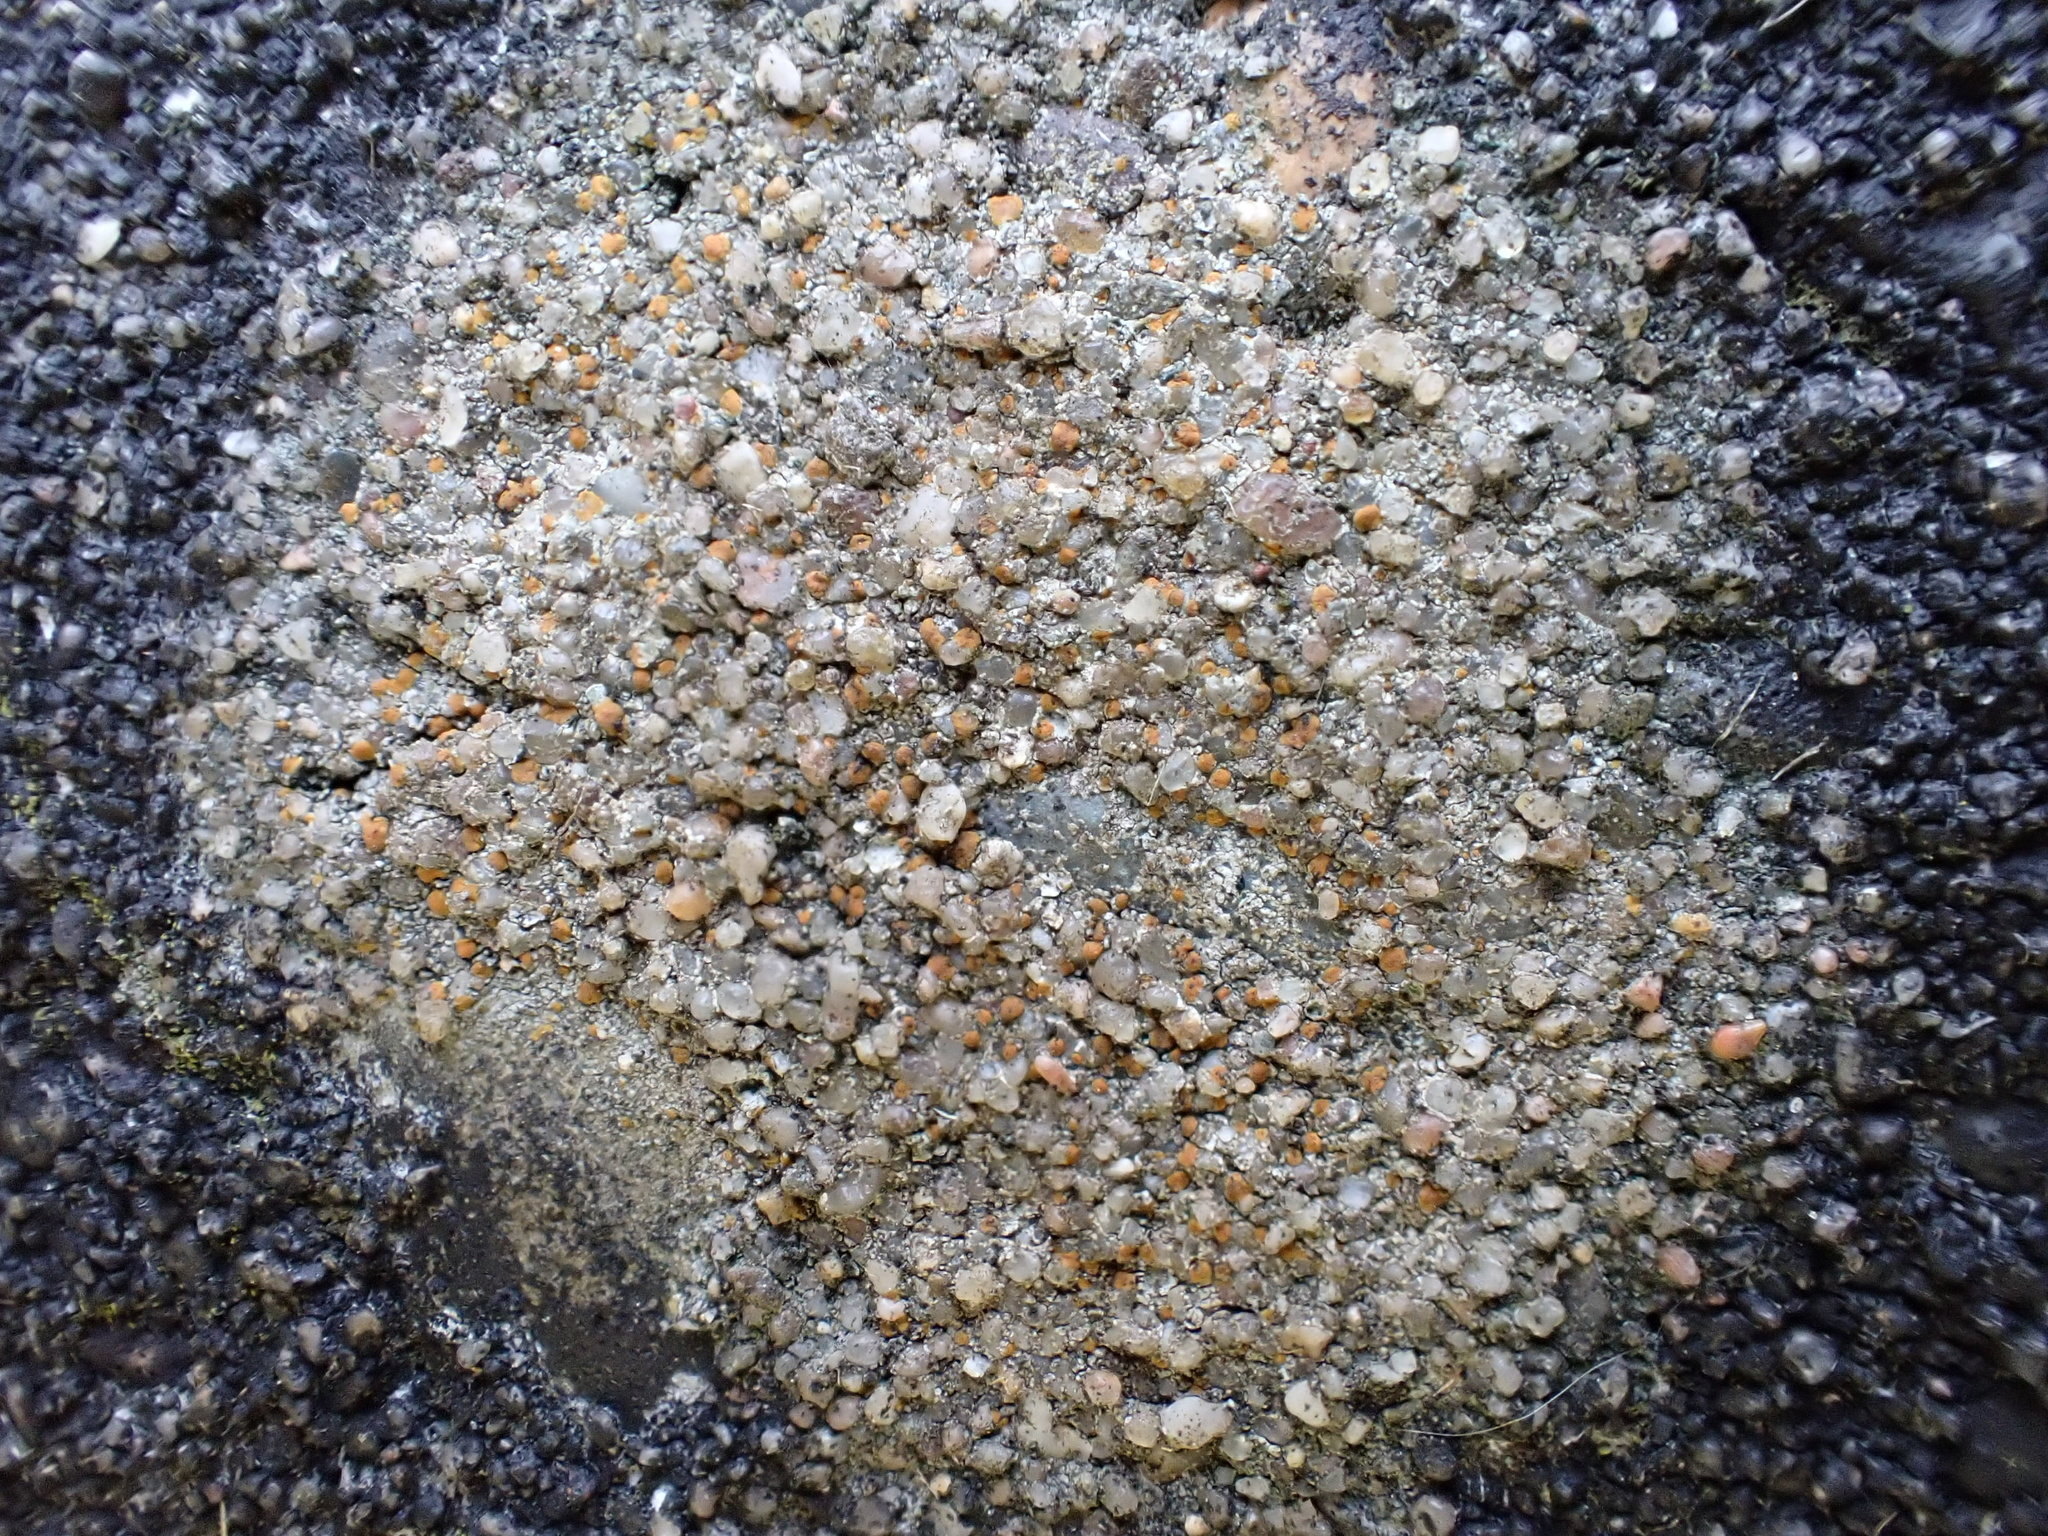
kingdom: Fungi
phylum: Ascomycota
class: Lecanoromycetes
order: Lecanorales
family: Psoraceae
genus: Protoblastenia
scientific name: Protoblastenia rupestris
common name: Chewing gum lichen
